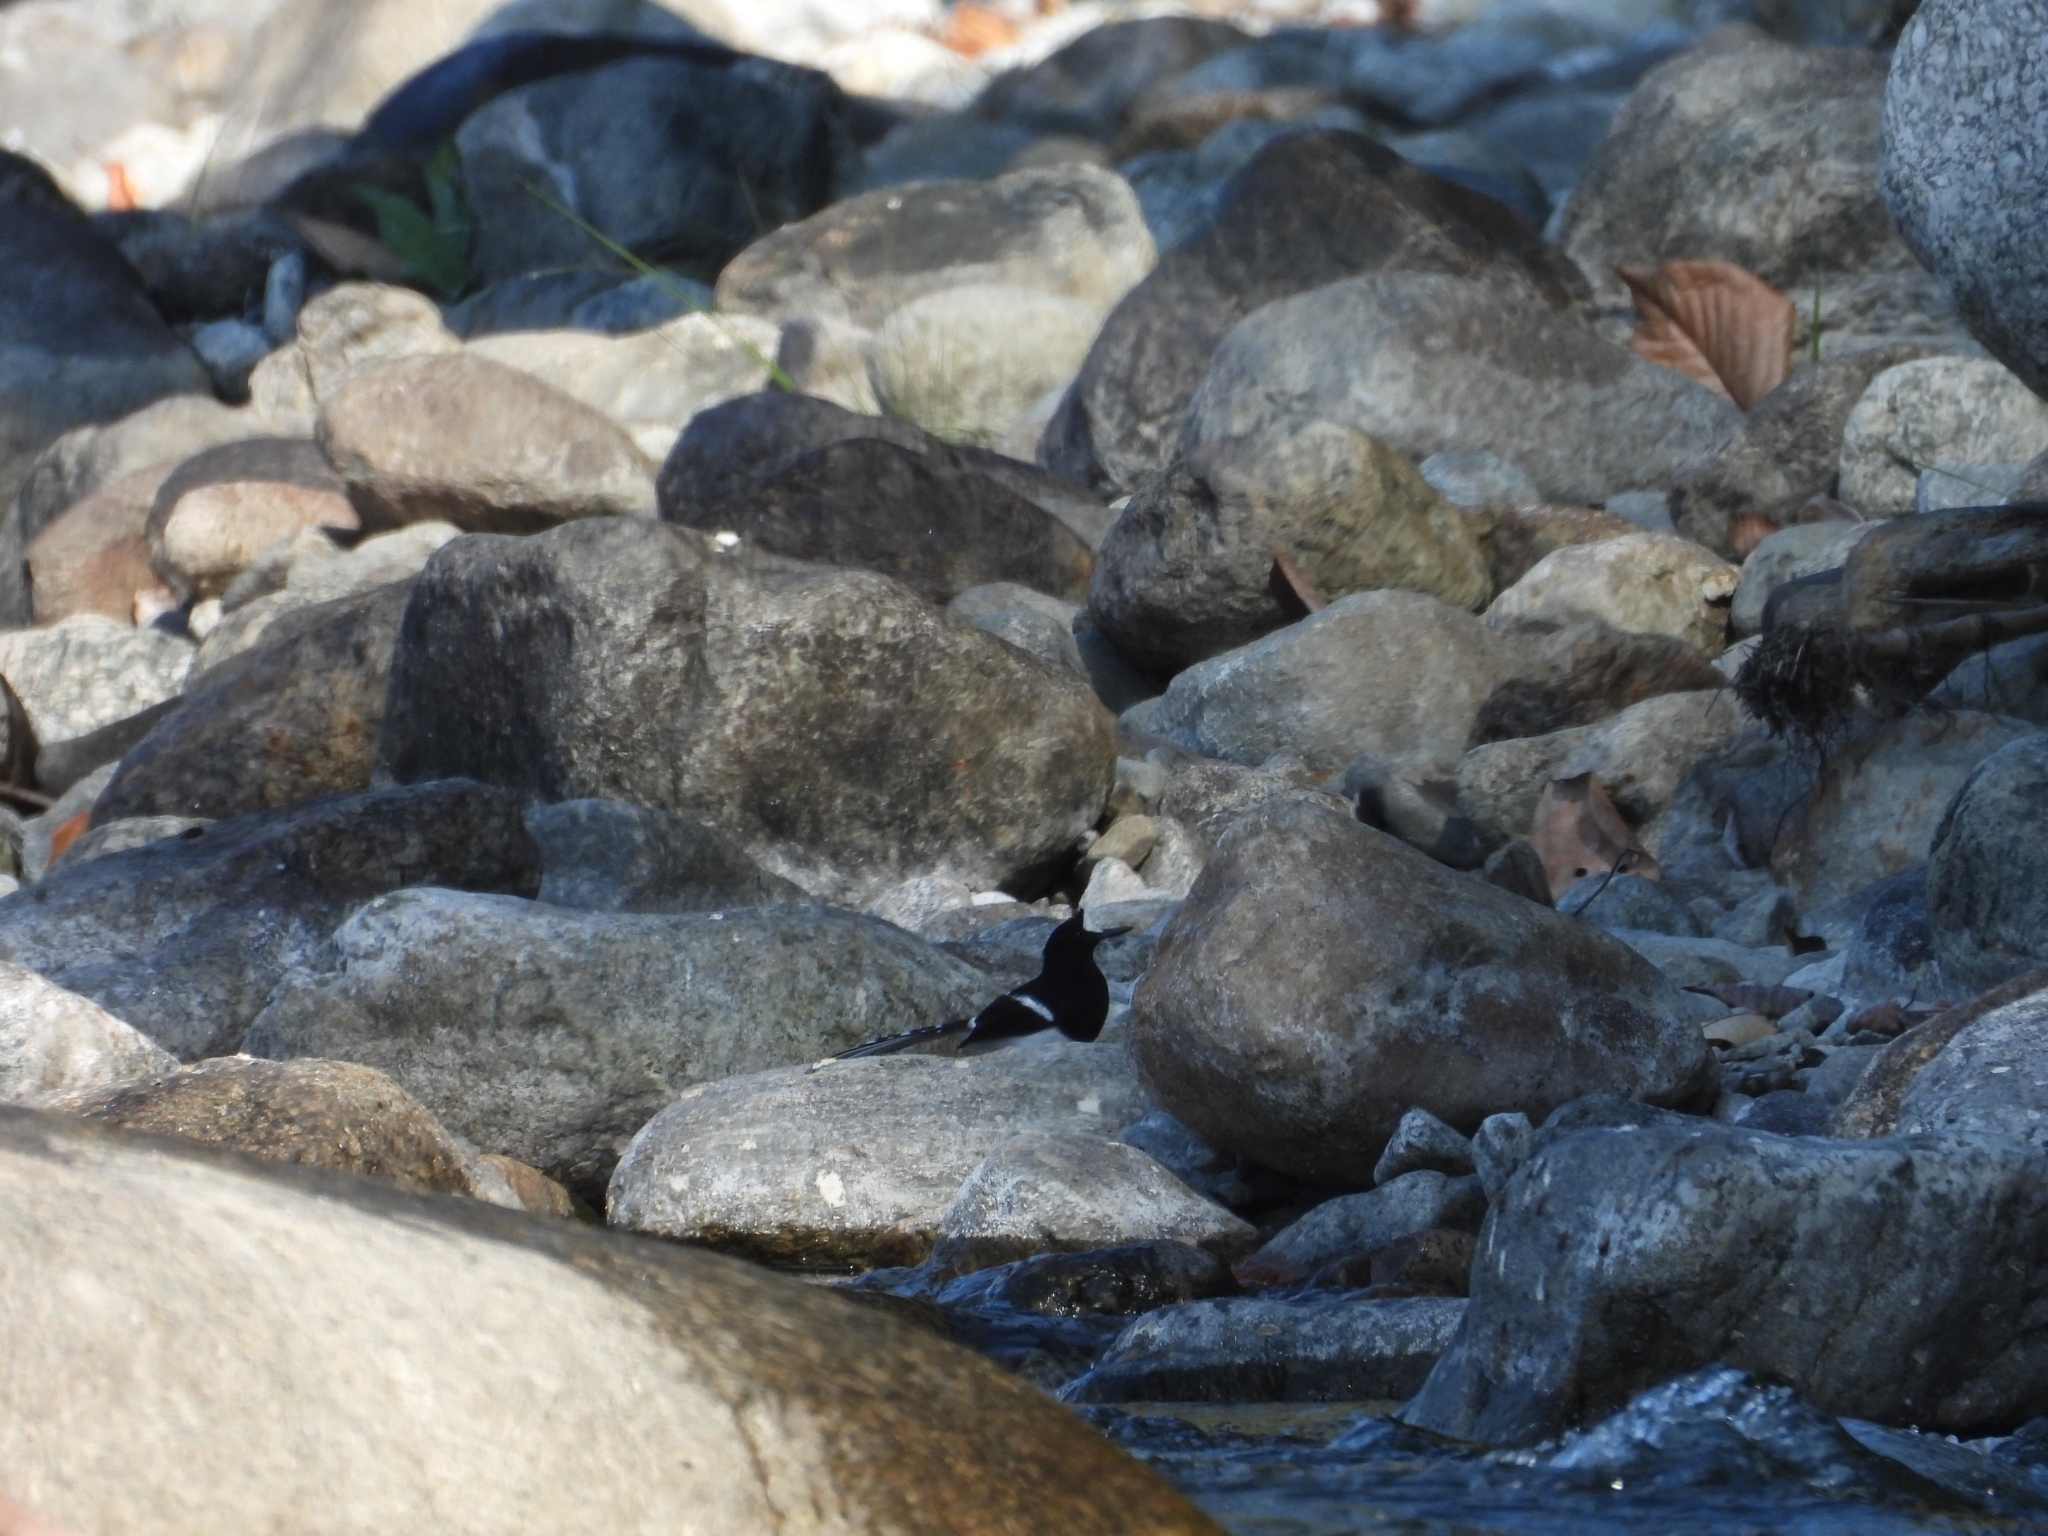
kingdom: Animalia
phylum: Chordata
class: Aves
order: Passeriformes
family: Muscicapidae
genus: Enicurus
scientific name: Enicurus leschenaulti
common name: White-crowned forktail
